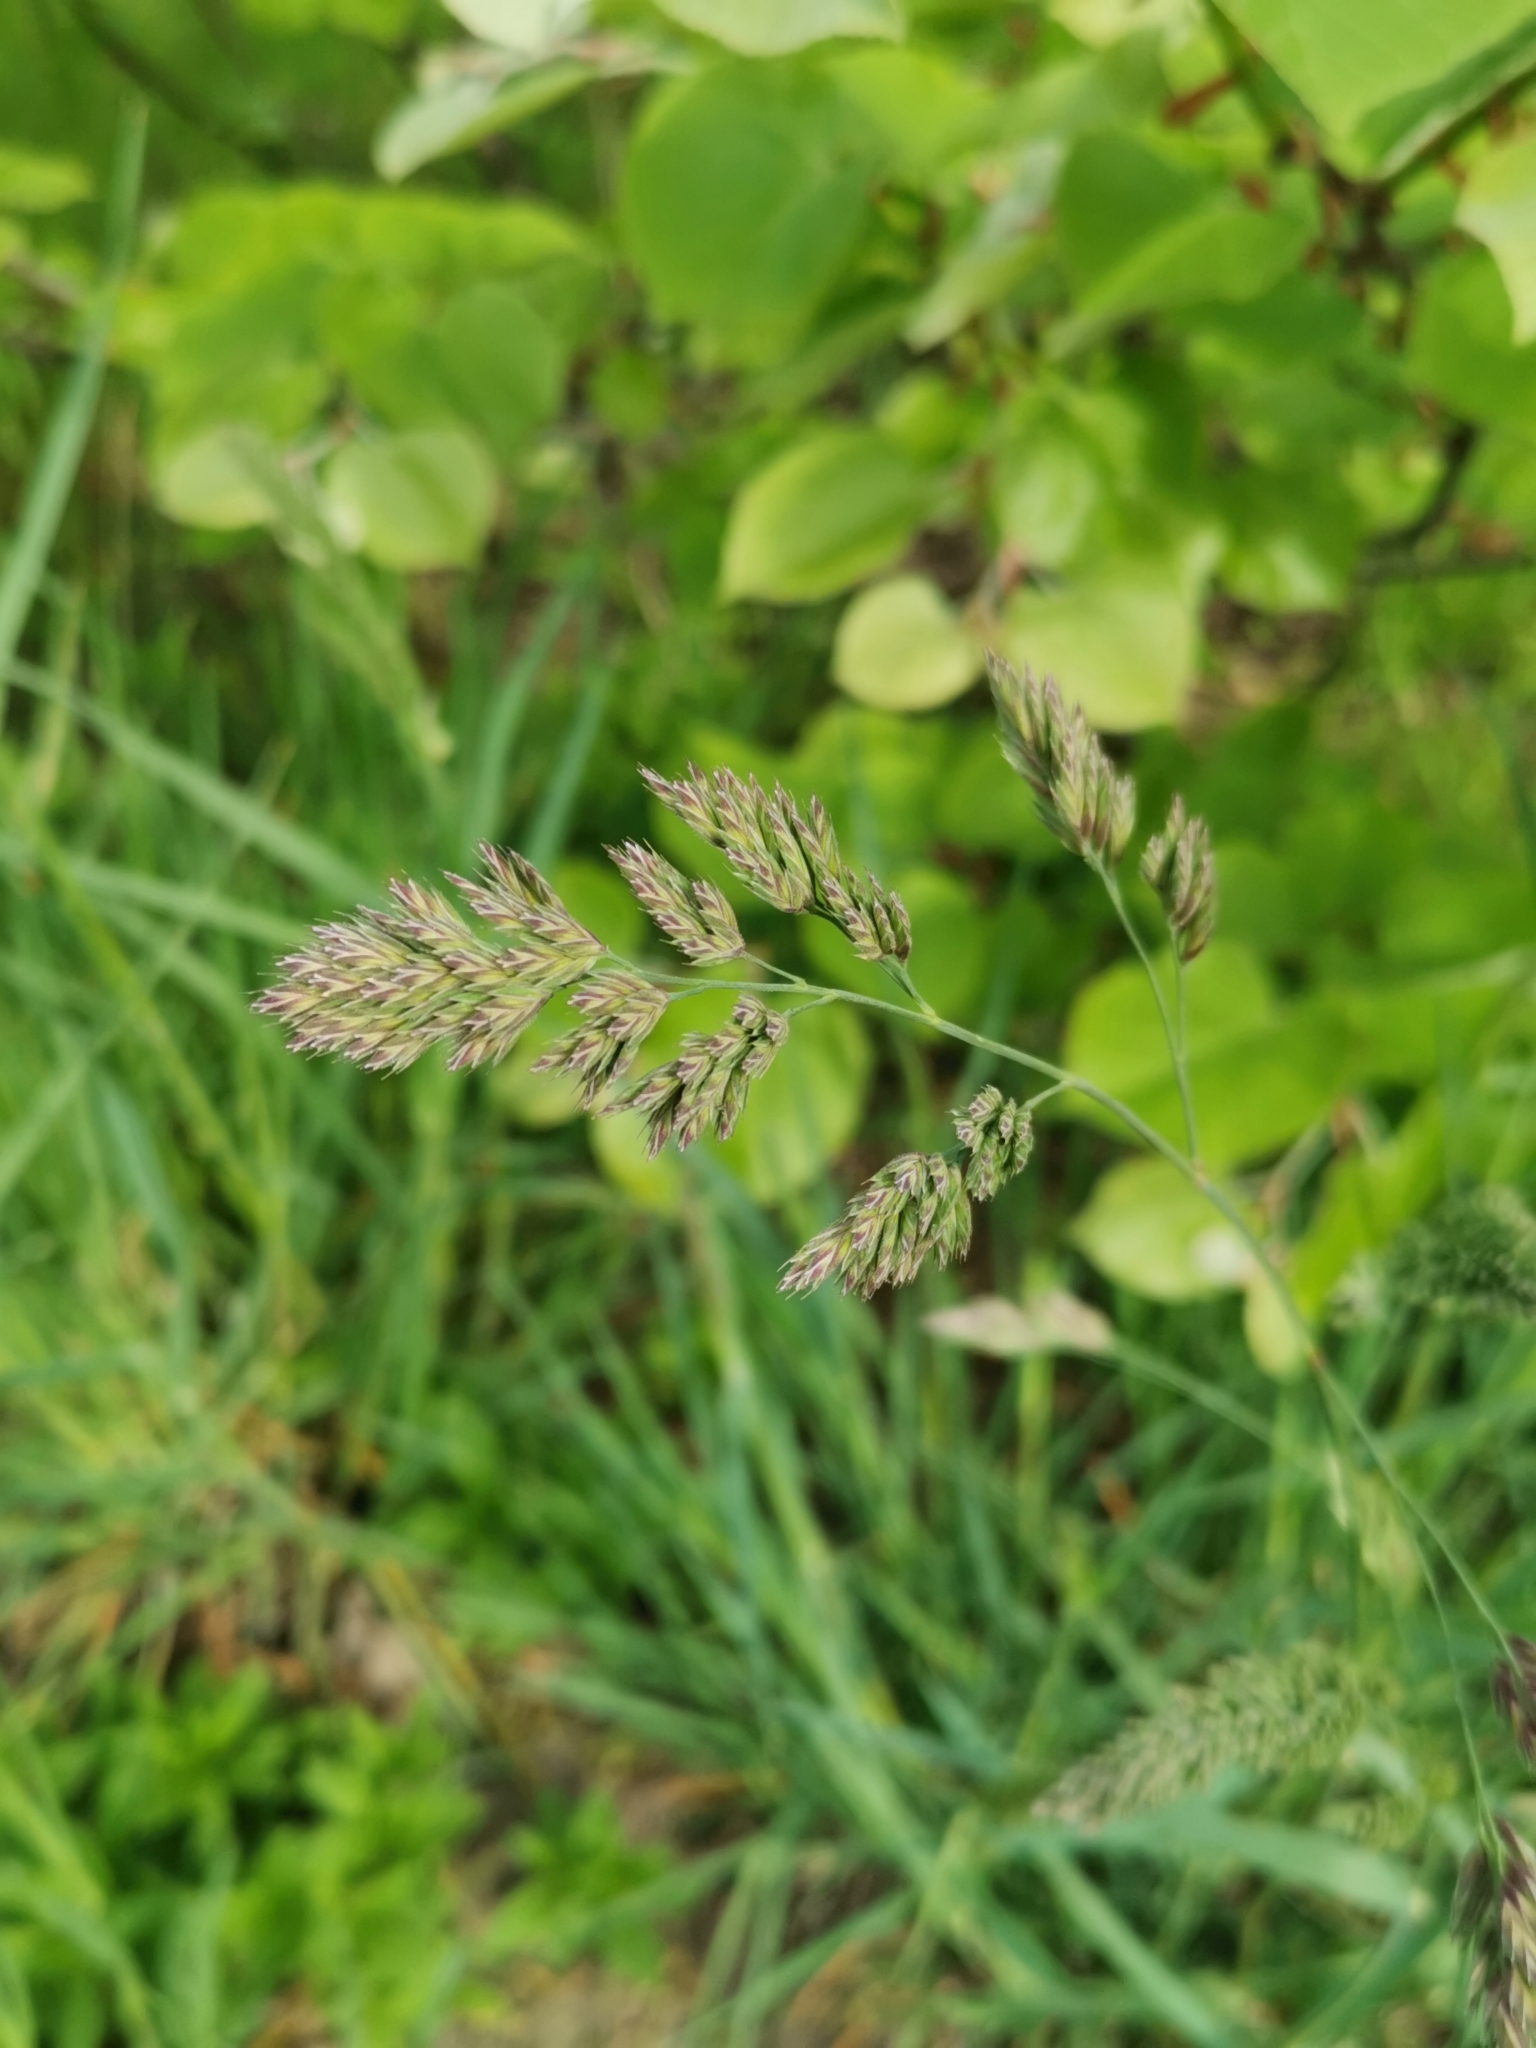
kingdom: Plantae
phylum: Tracheophyta
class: Liliopsida
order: Poales
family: Poaceae
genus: Dactylis
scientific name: Dactylis glomerata
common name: Orchardgrass
